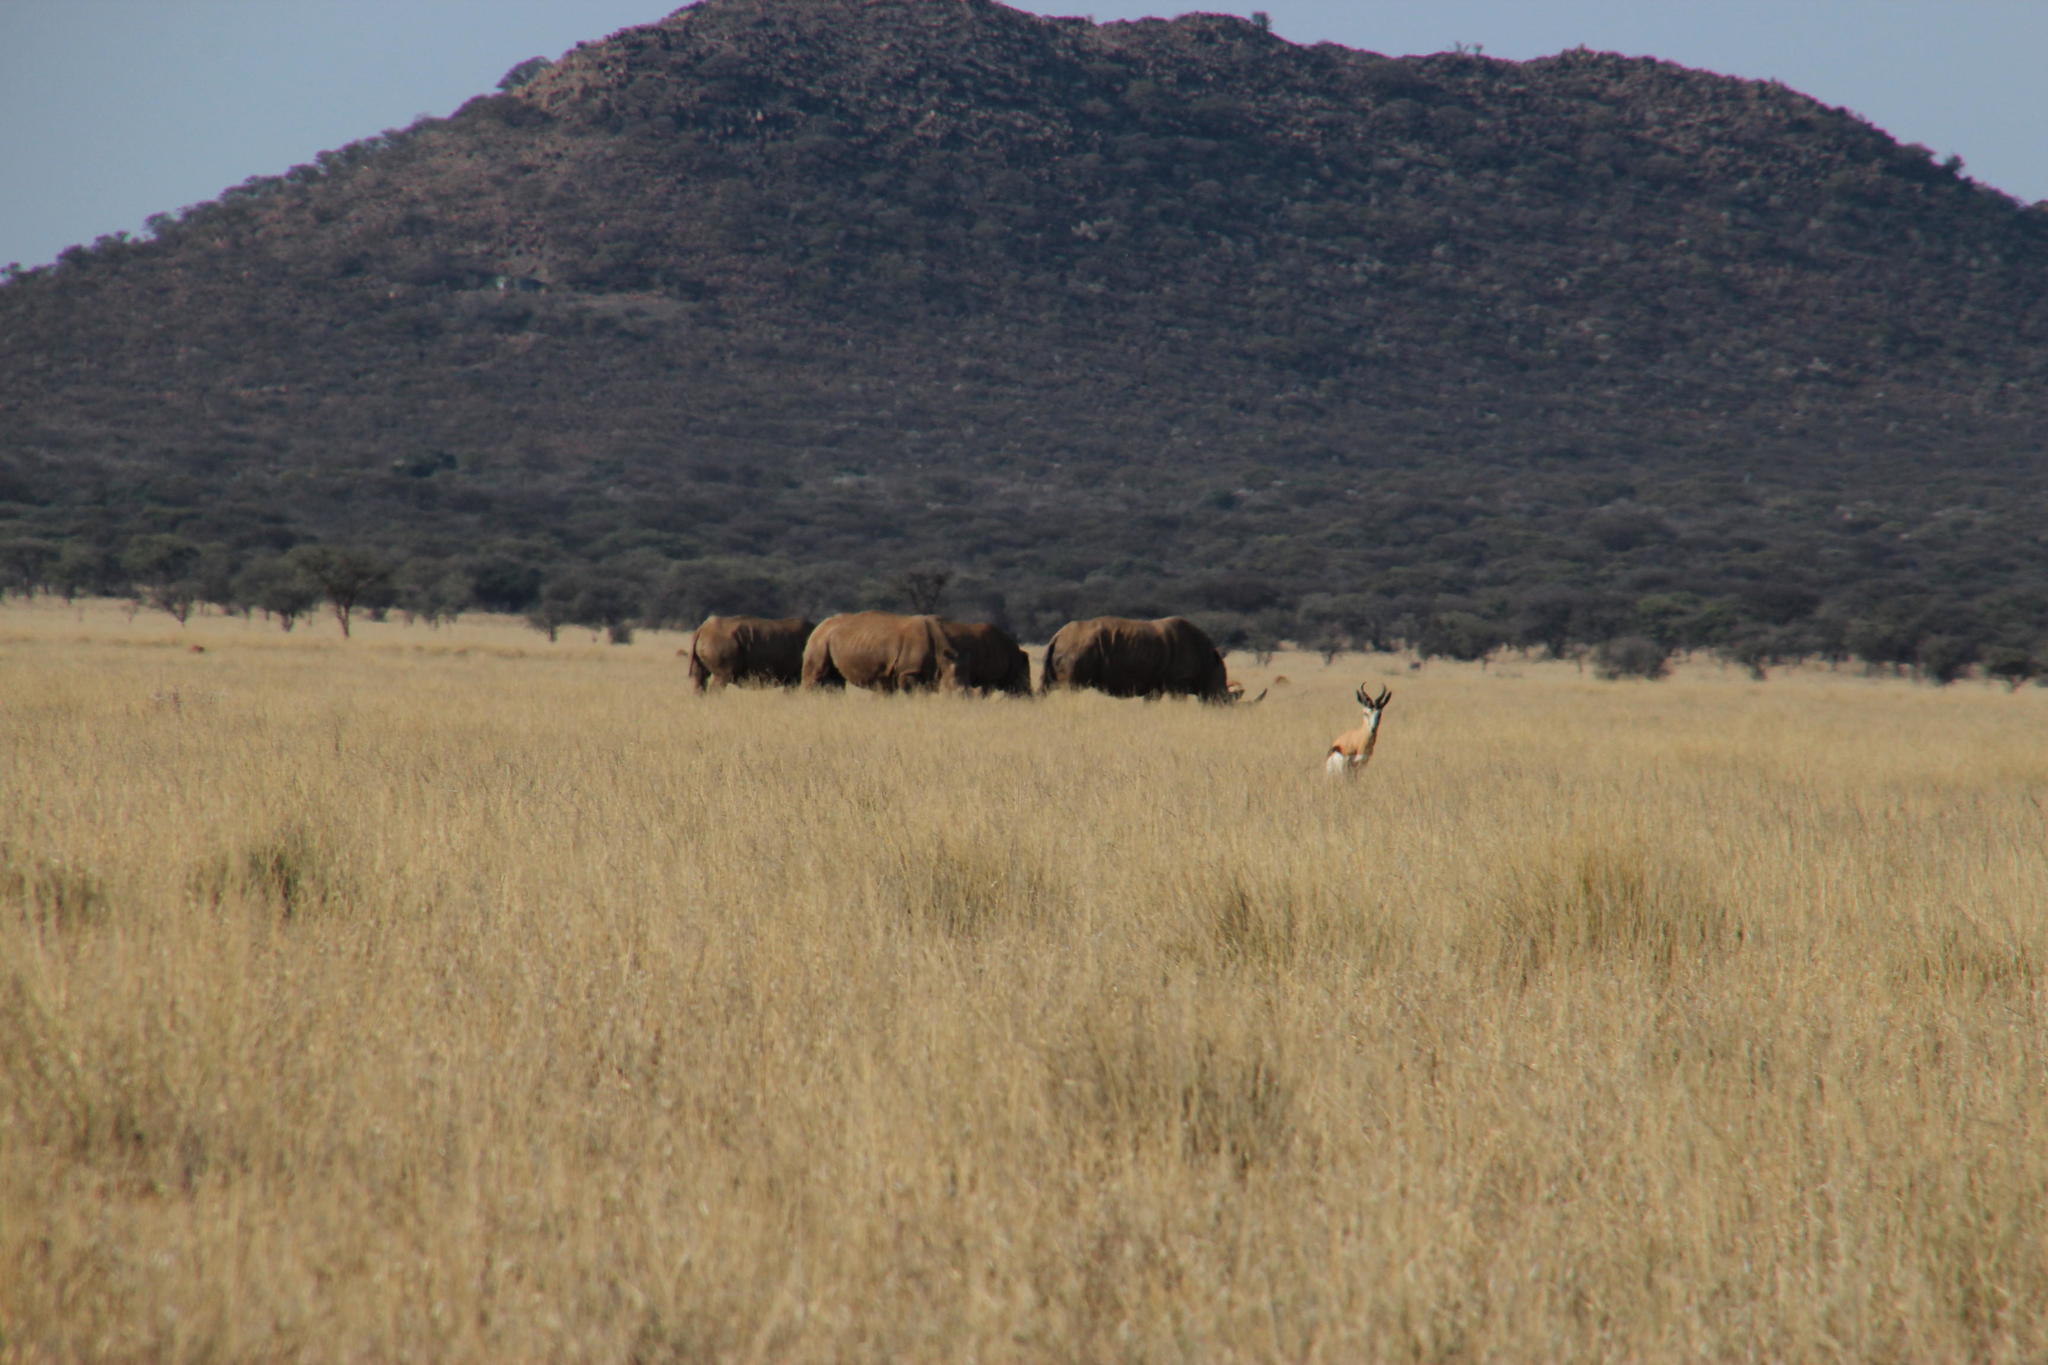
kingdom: Animalia
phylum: Chordata
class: Mammalia
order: Perissodactyla
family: Rhinocerotidae
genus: Ceratotherium
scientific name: Ceratotherium simum
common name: White rhinoceros
